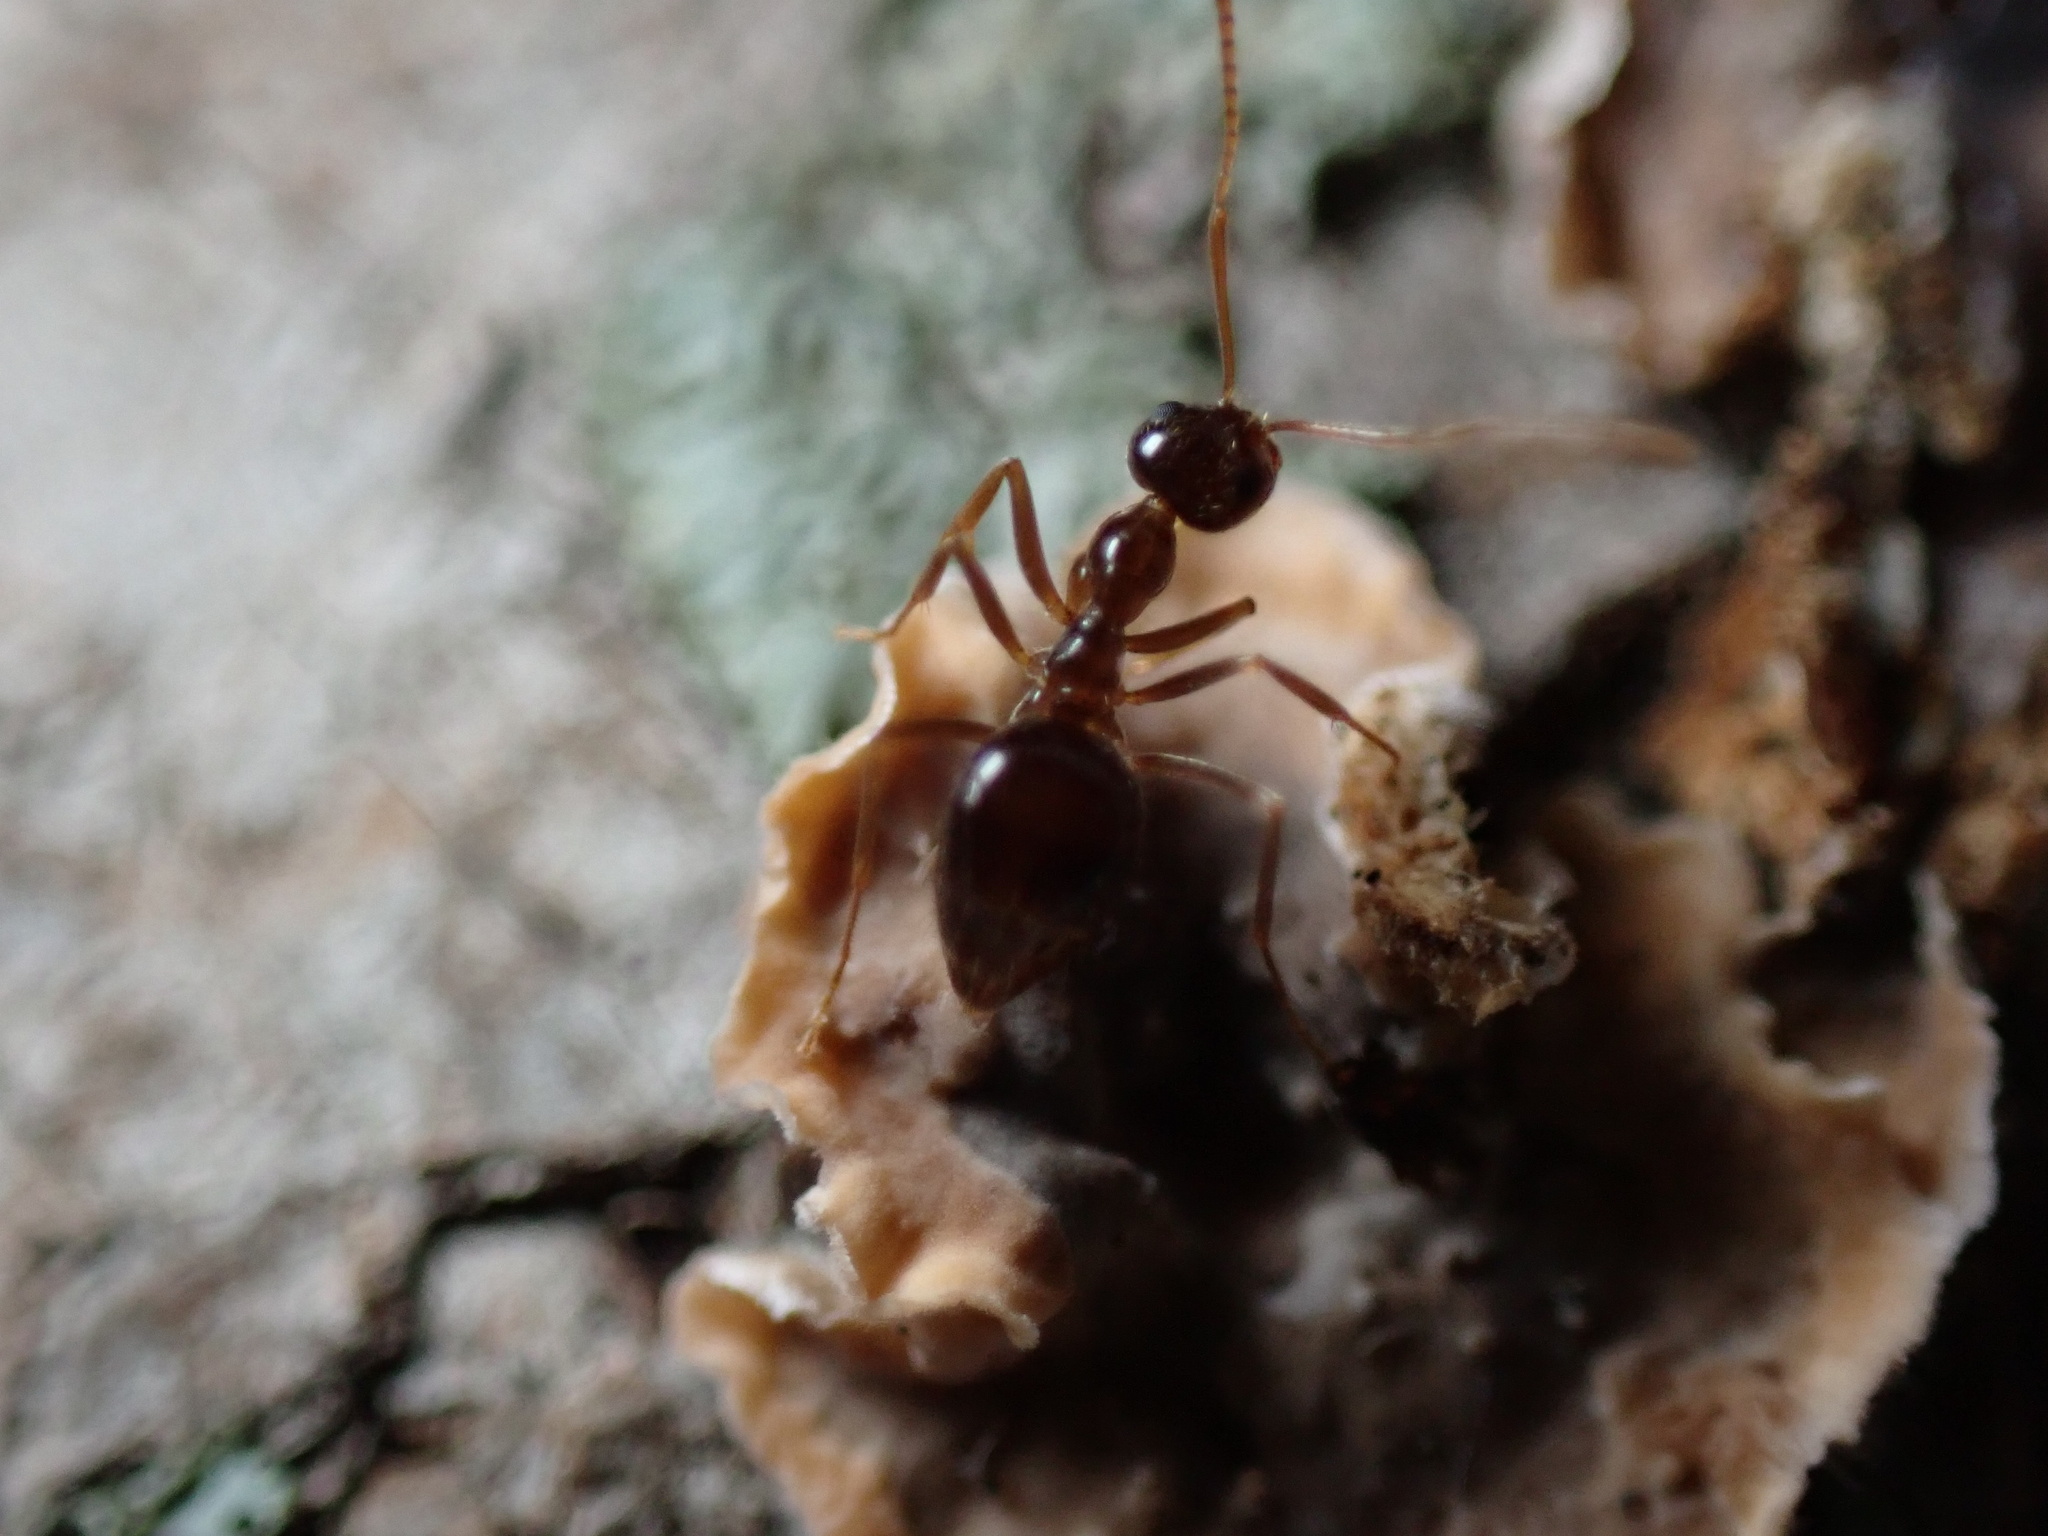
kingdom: Animalia
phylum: Arthropoda
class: Insecta
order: Hymenoptera
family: Formicidae
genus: Prenolepis
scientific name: Prenolepis imparis
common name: Small honey ant
